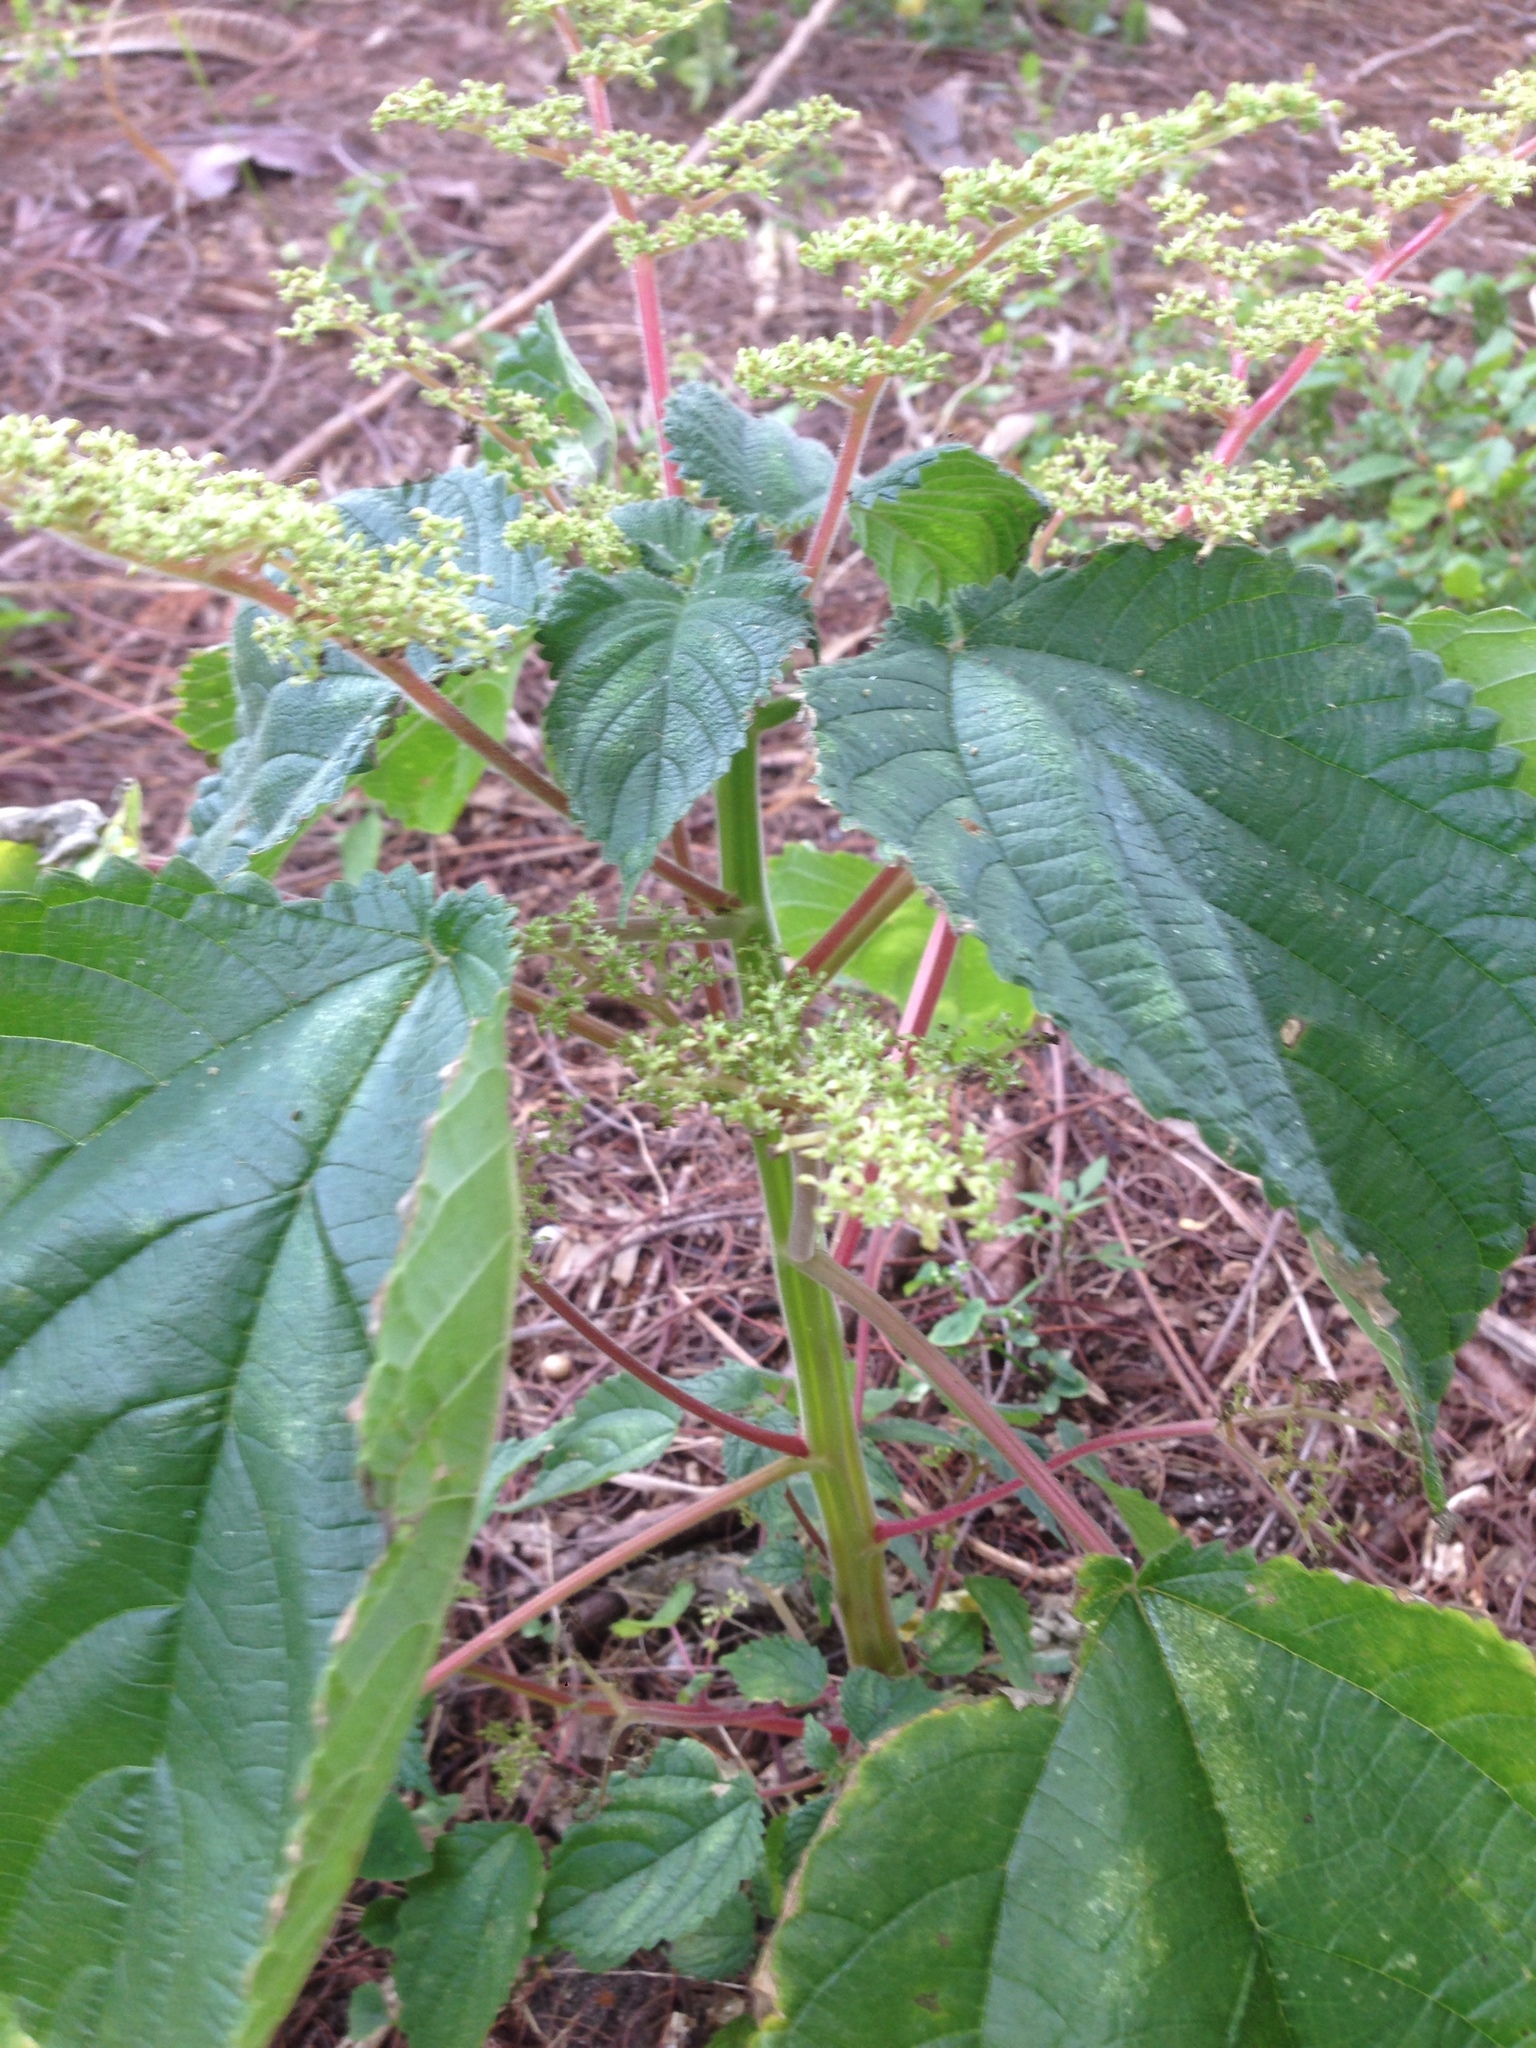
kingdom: Plantae
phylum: Tracheophyta
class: Magnoliopsida
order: Rosales
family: Urticaceae
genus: Laportea
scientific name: Laportea aestuans
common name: West indian woodnettle
